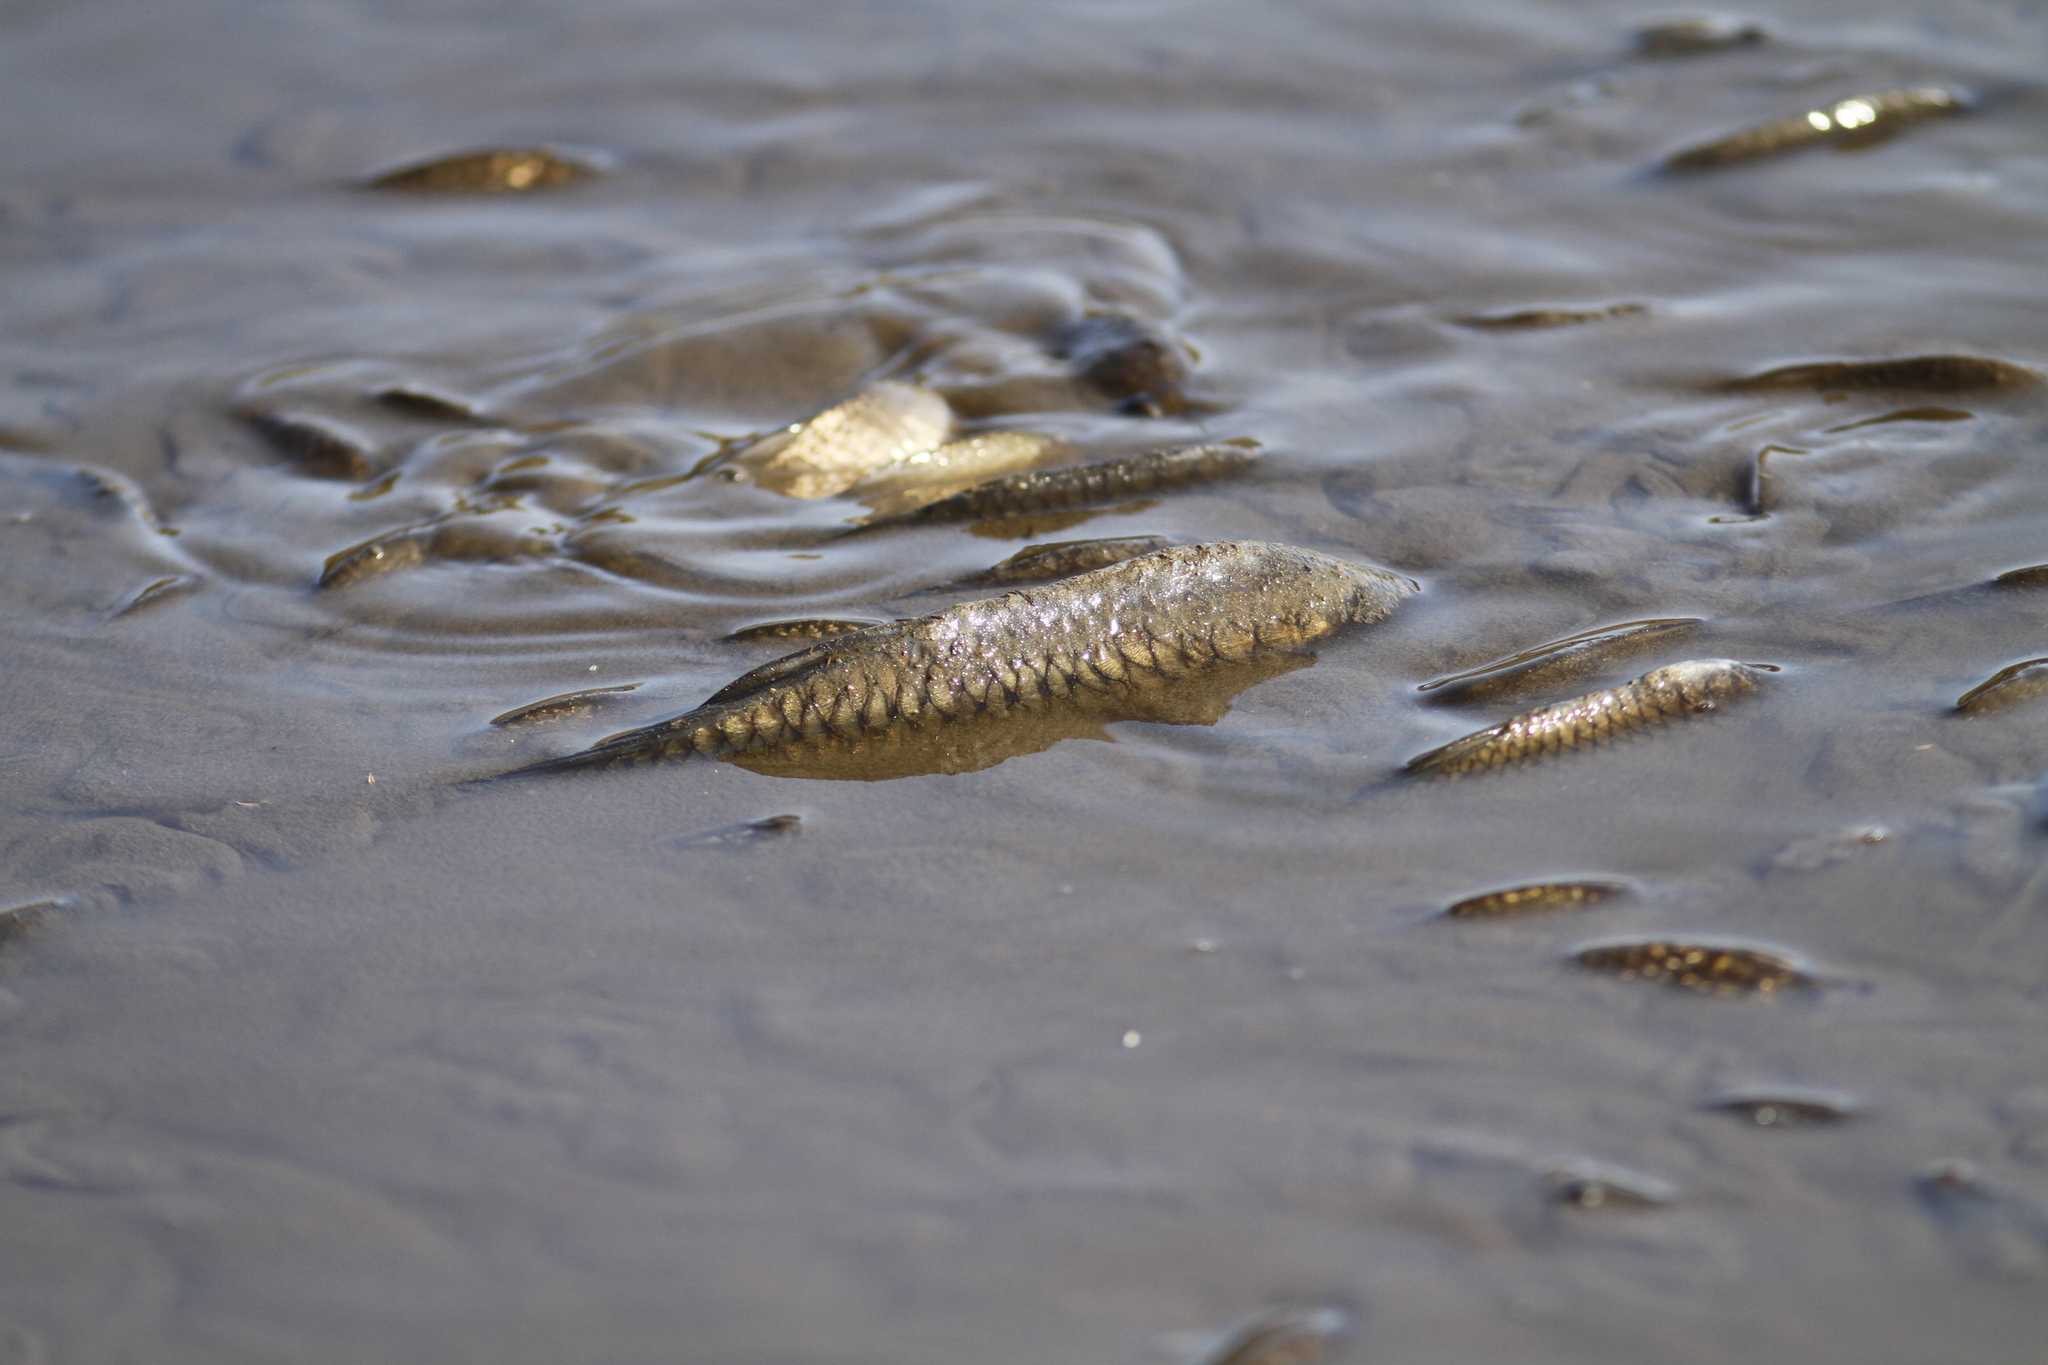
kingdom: Animalia
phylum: Chordata
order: Cypriniformes
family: Cyprinidae
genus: Cyprinus
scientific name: Cyprinus carpio
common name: Common carp
